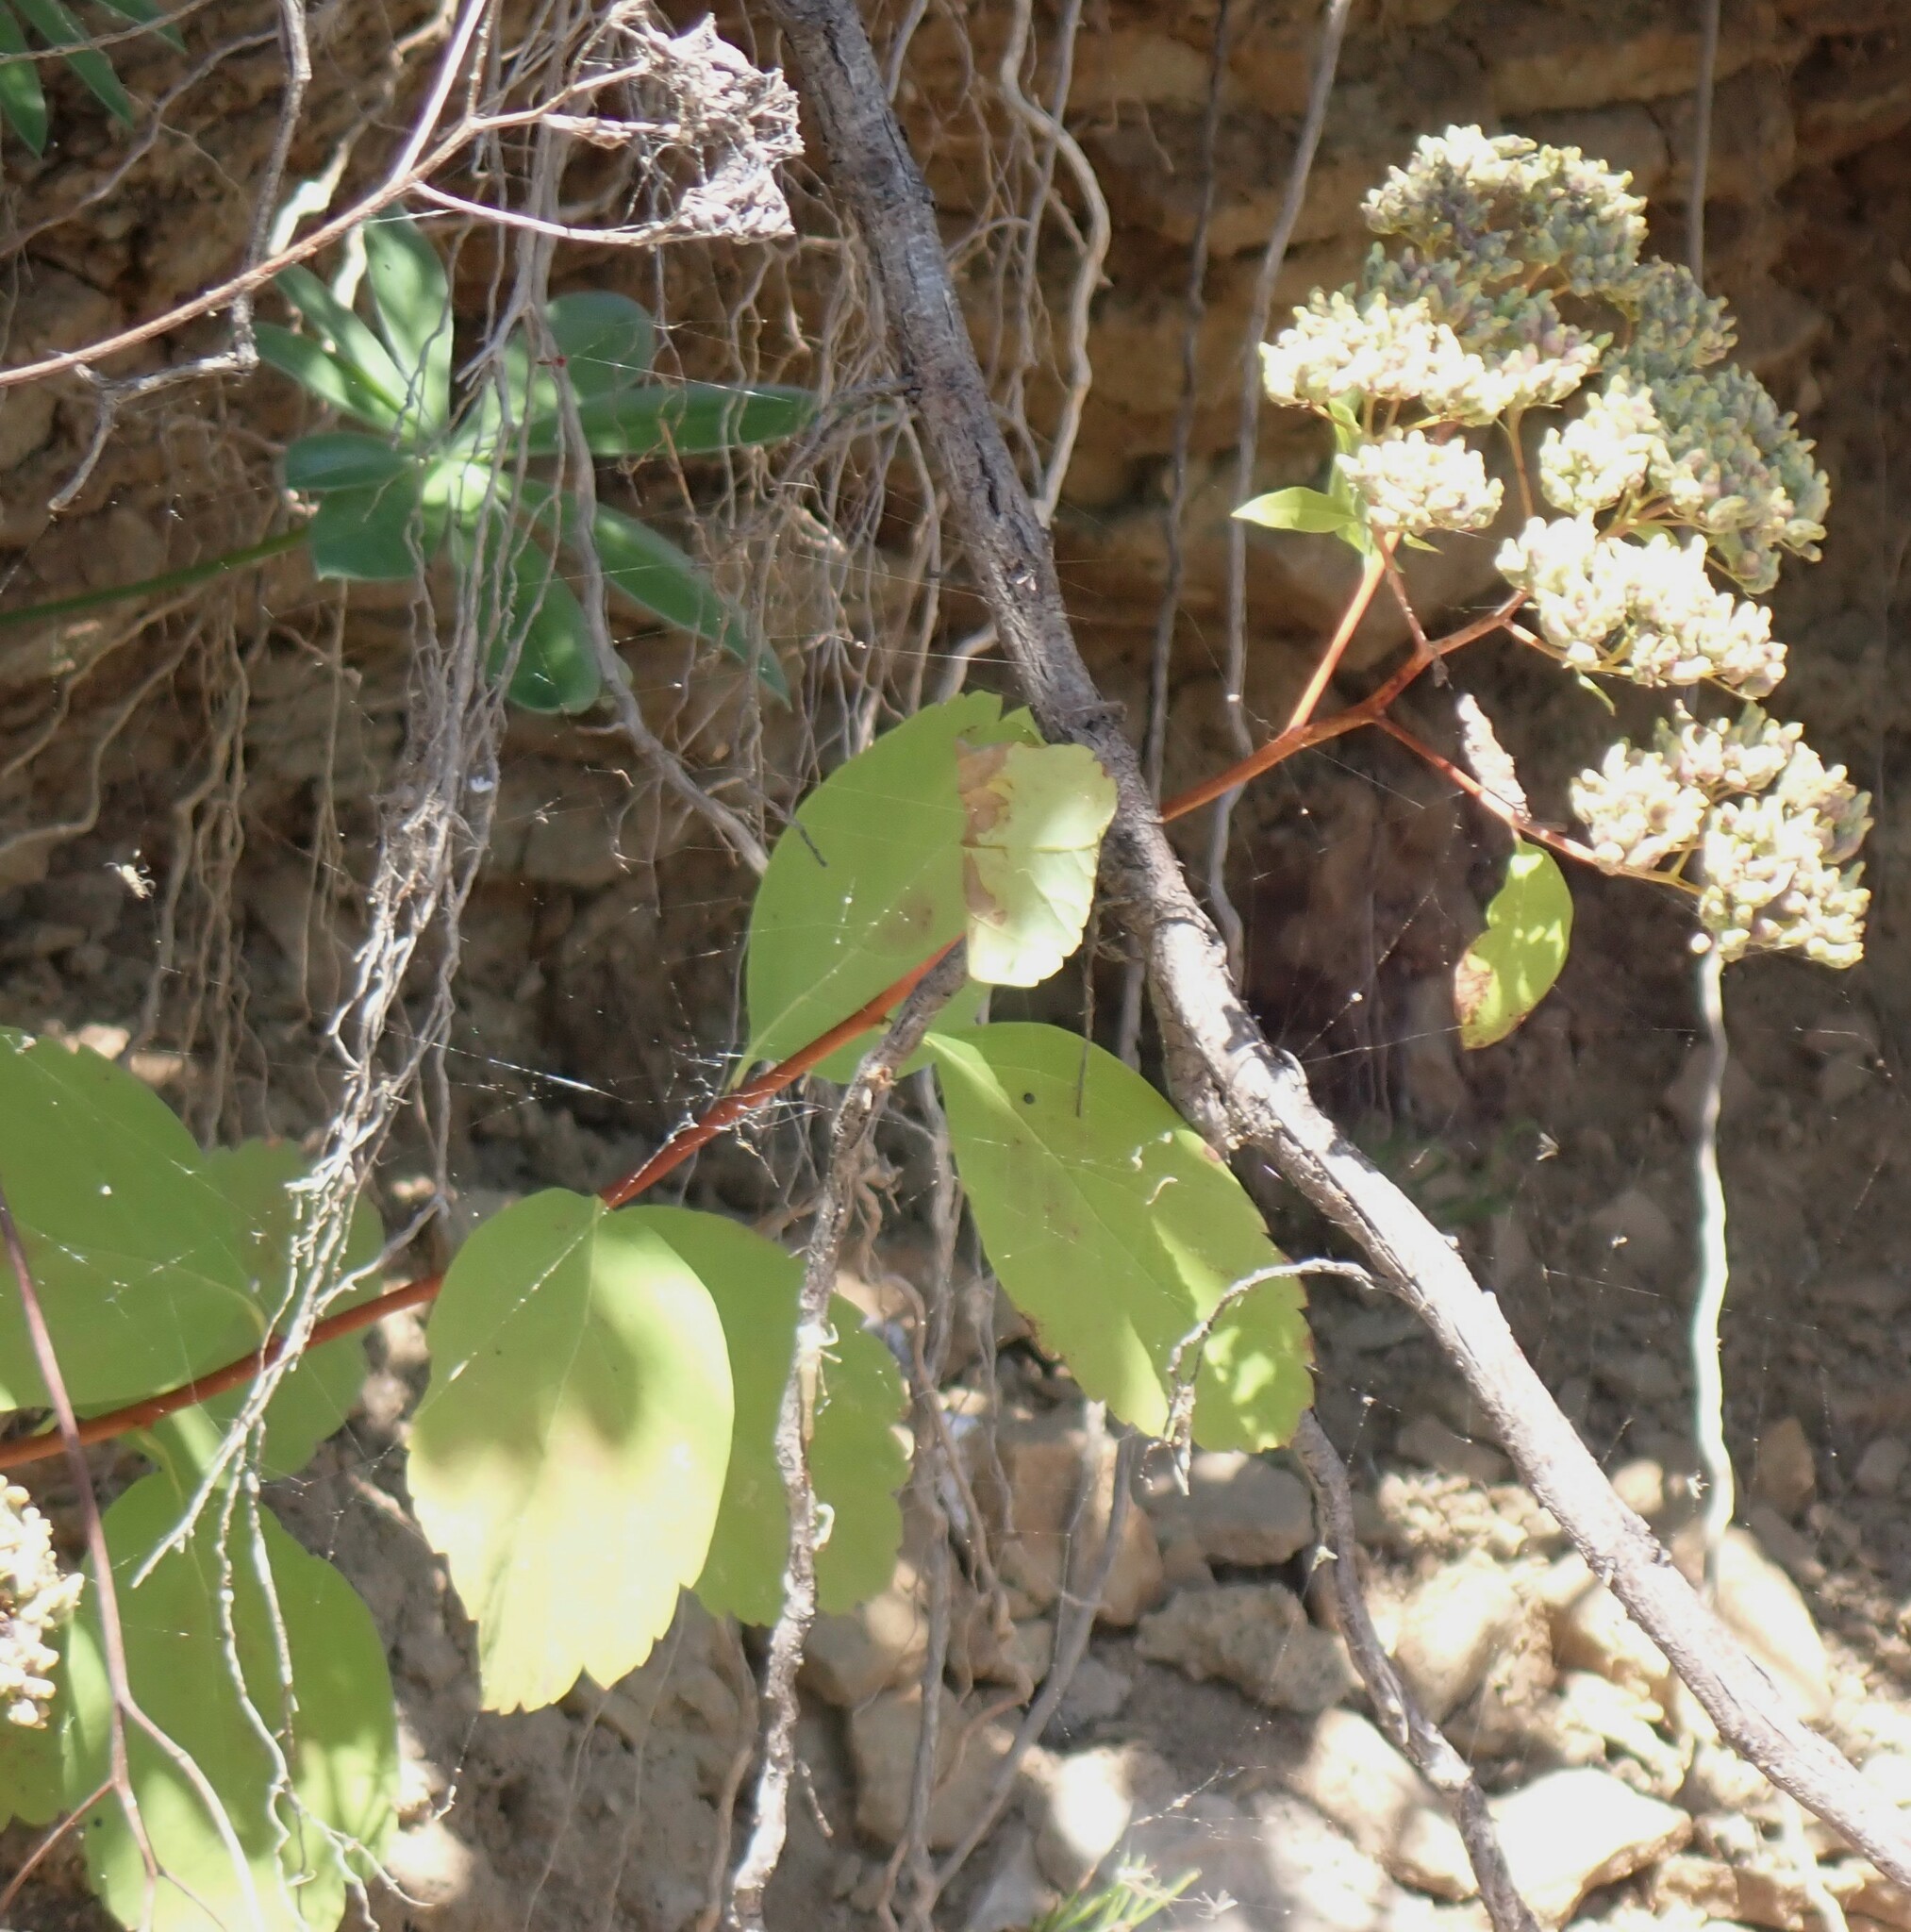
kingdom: Plantae
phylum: Tracheophyta
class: Magnoliopsida
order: Rosales
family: Rosaceae
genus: Spiraea
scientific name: Spiraea lucida
